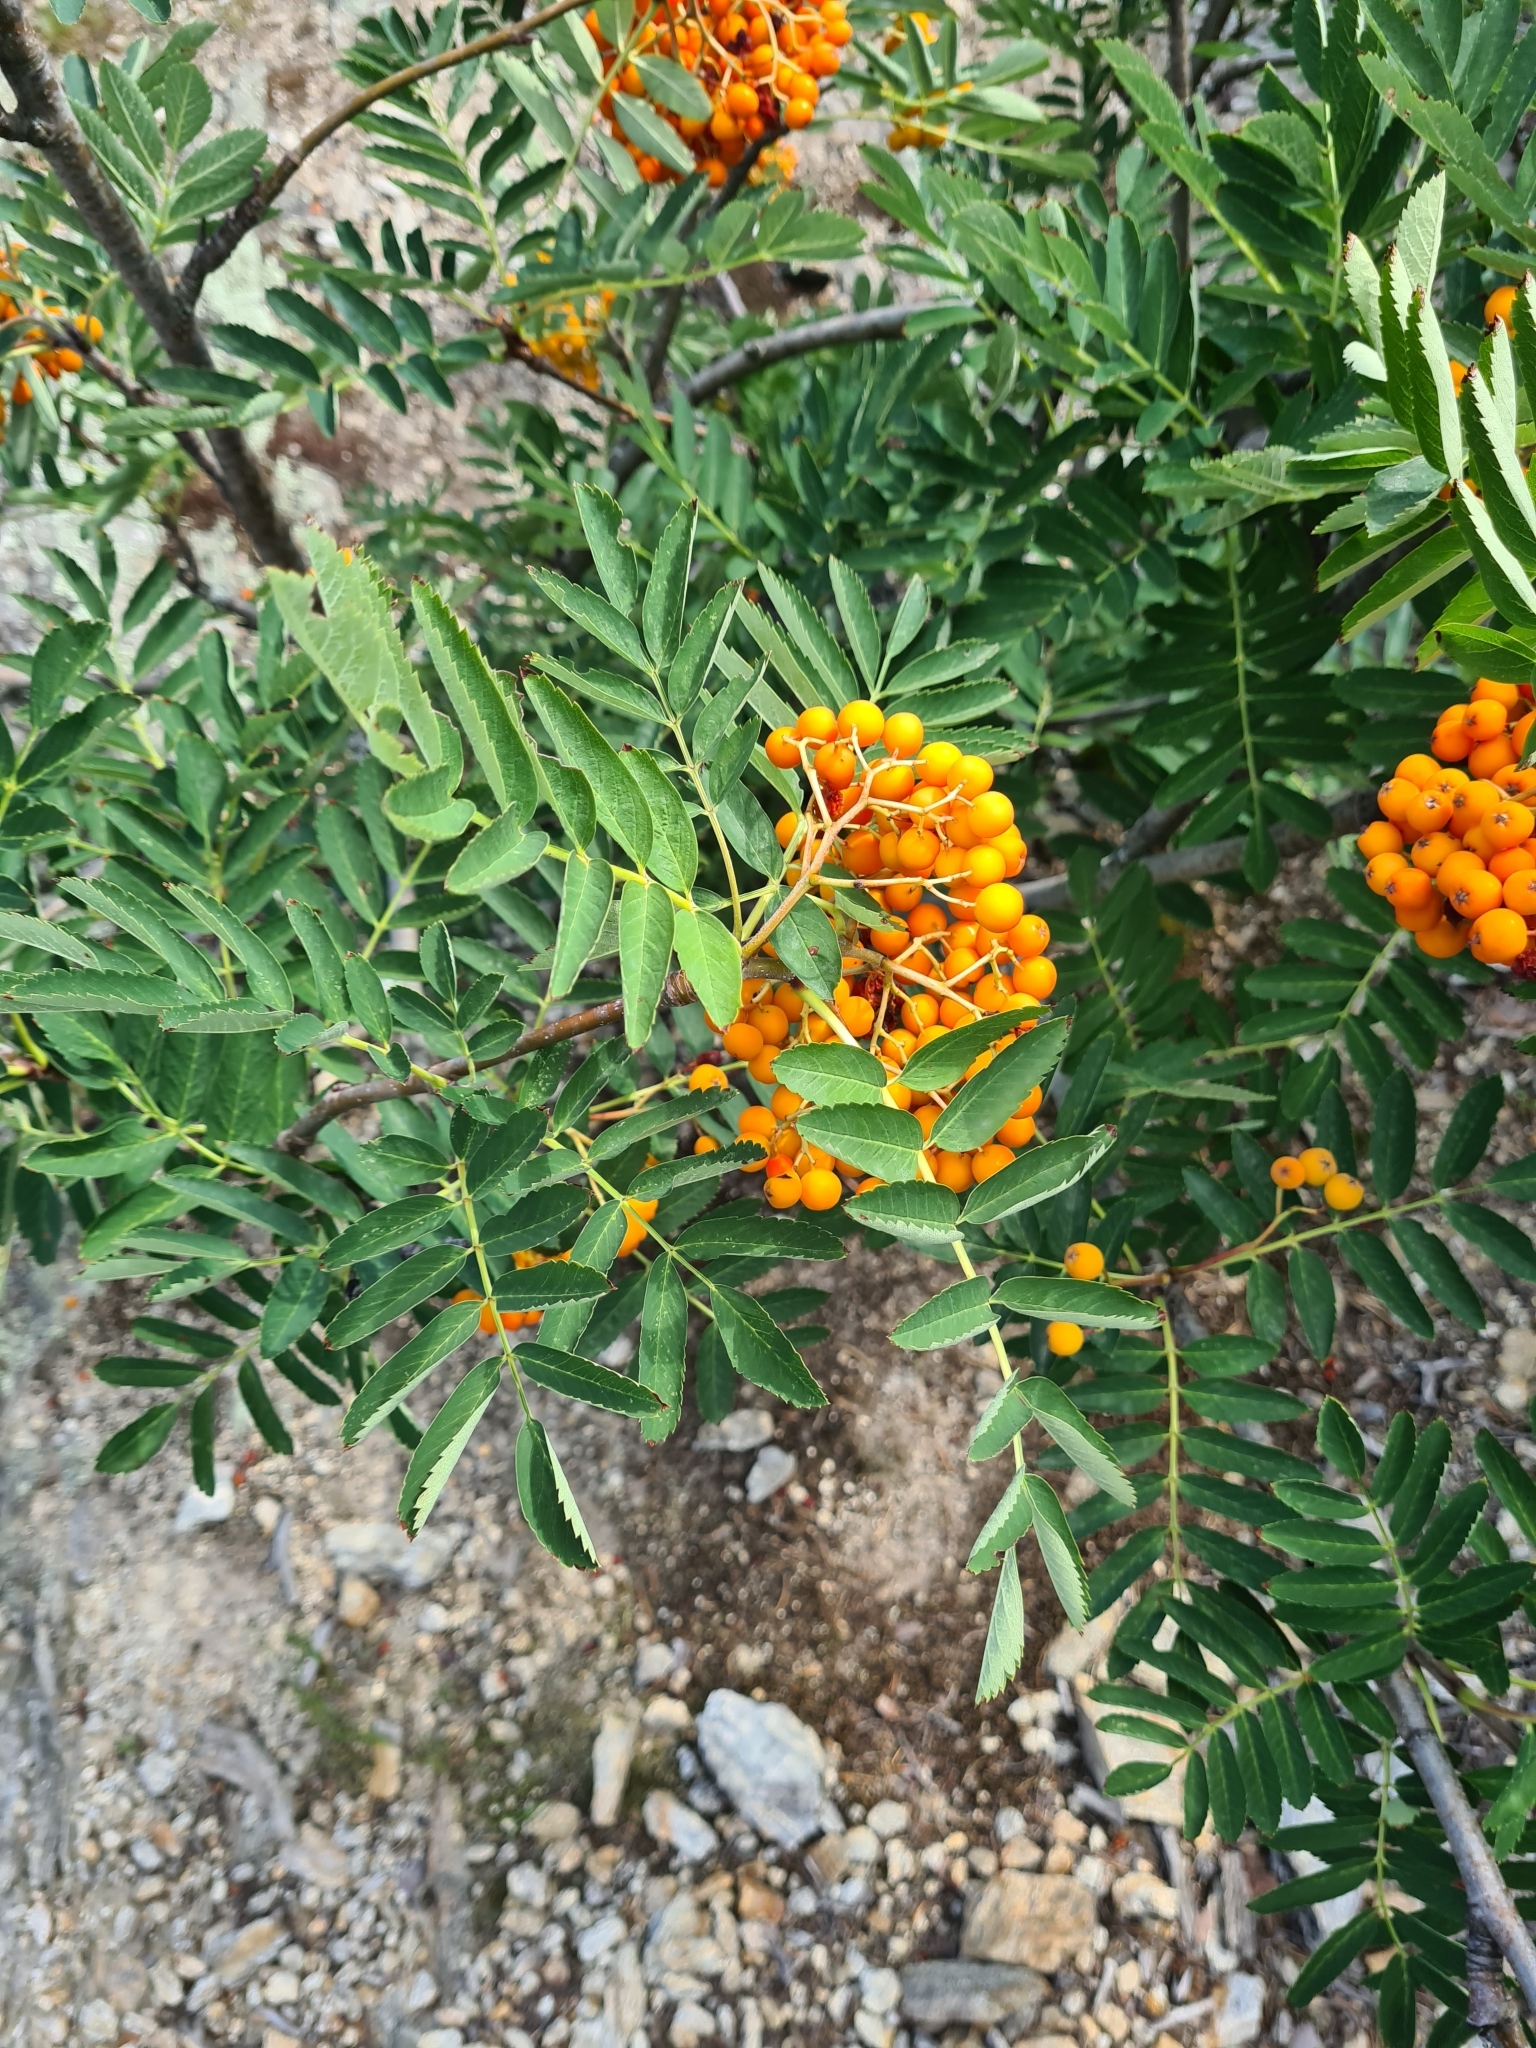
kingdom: Plantae
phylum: Tracheophyta
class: Magnoliopsida
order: Rosales
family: Rosaceae
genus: Sorbus
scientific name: Sorbus aucuparia
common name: Rowan
